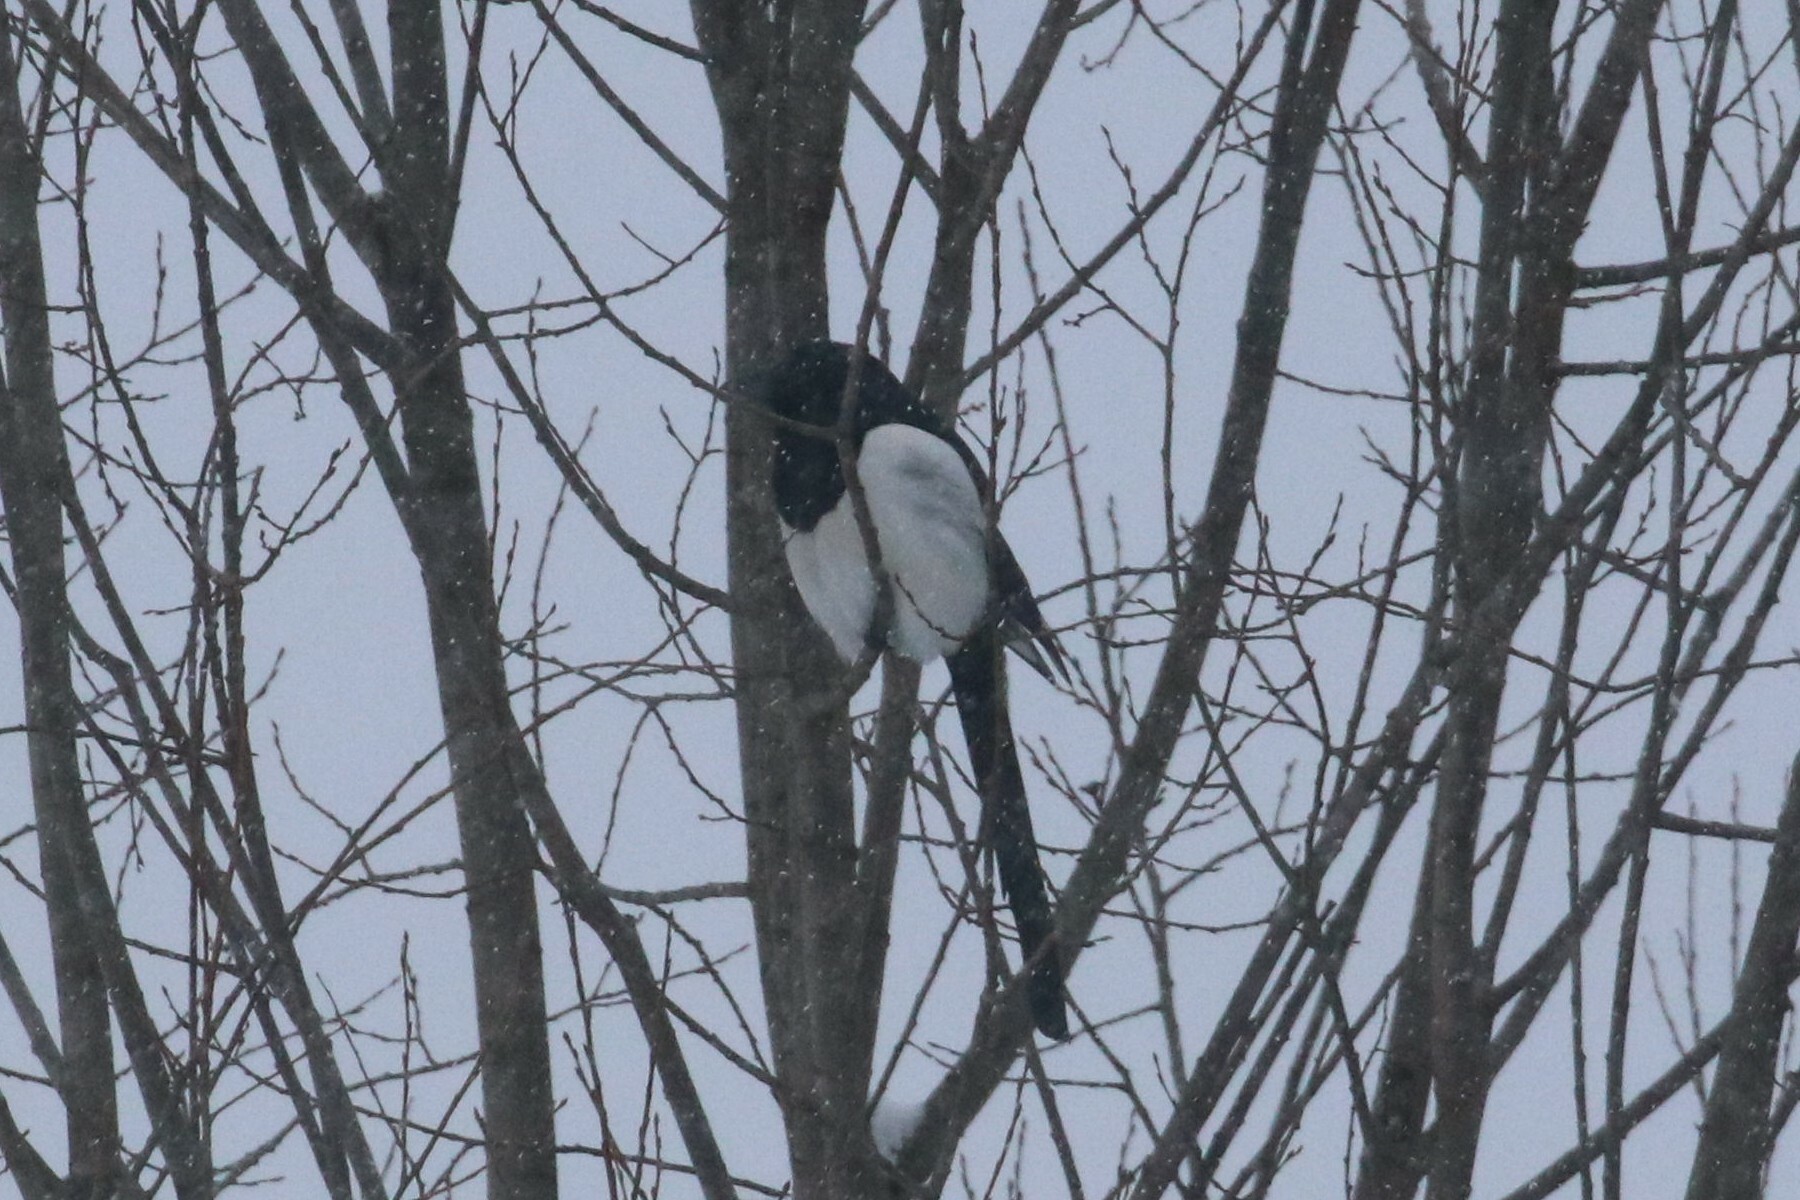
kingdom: Animalia
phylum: Chordata
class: Aves
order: Passeriformes
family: Corvidae
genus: Pica
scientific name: Pica pica
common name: Eurasian magpie
